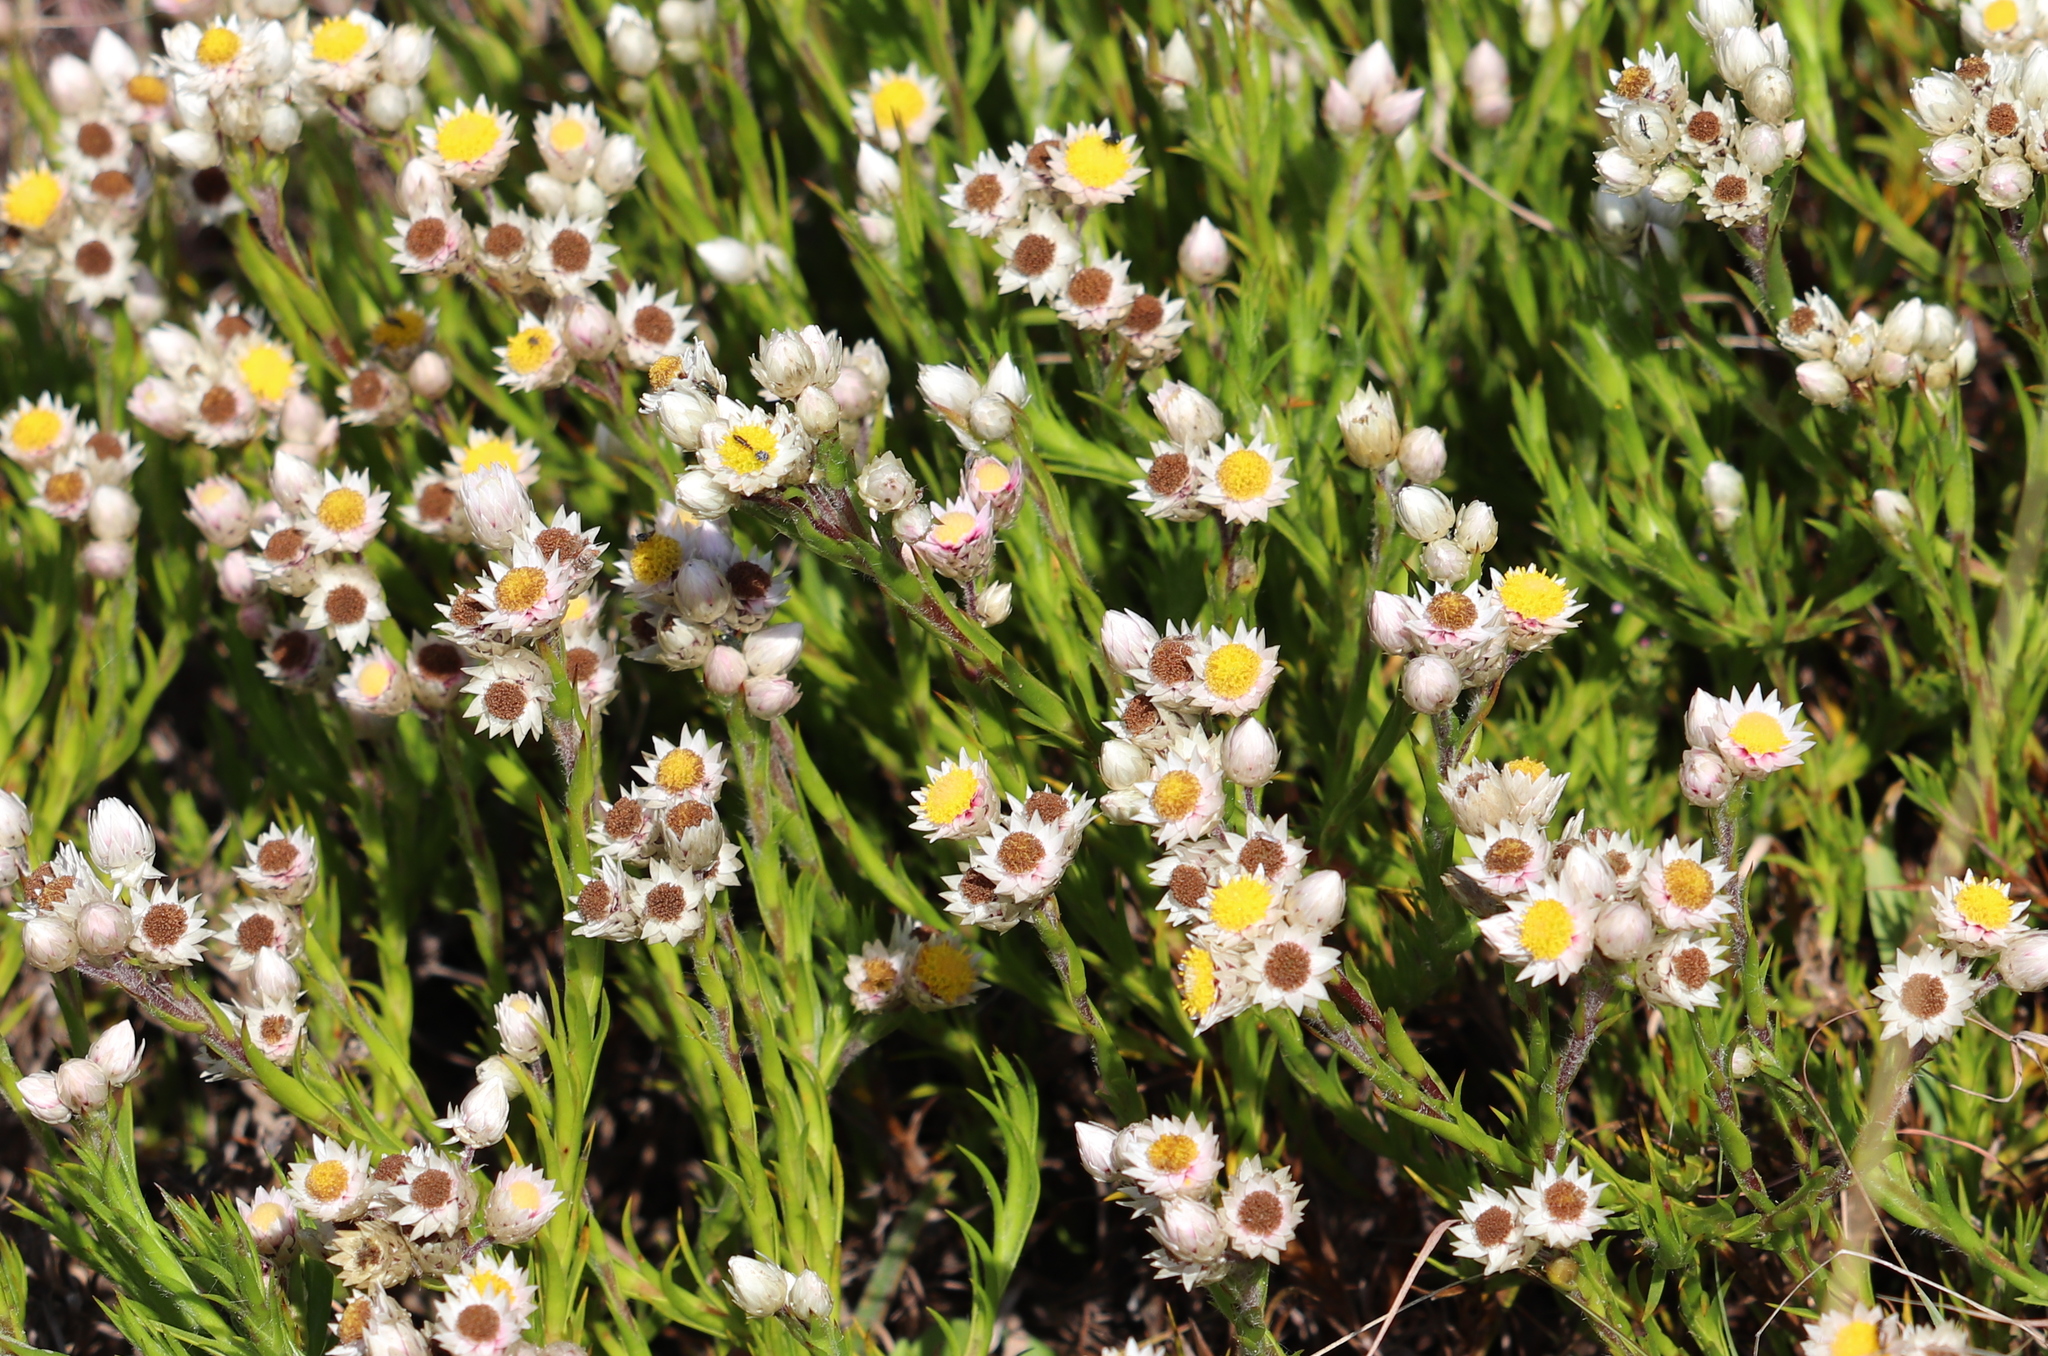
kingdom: Plantae
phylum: Tracheophyta
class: Magnoliopsida
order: Asterales
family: Asteraceae
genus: Achyranthemum
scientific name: Achyranthemum striatum
